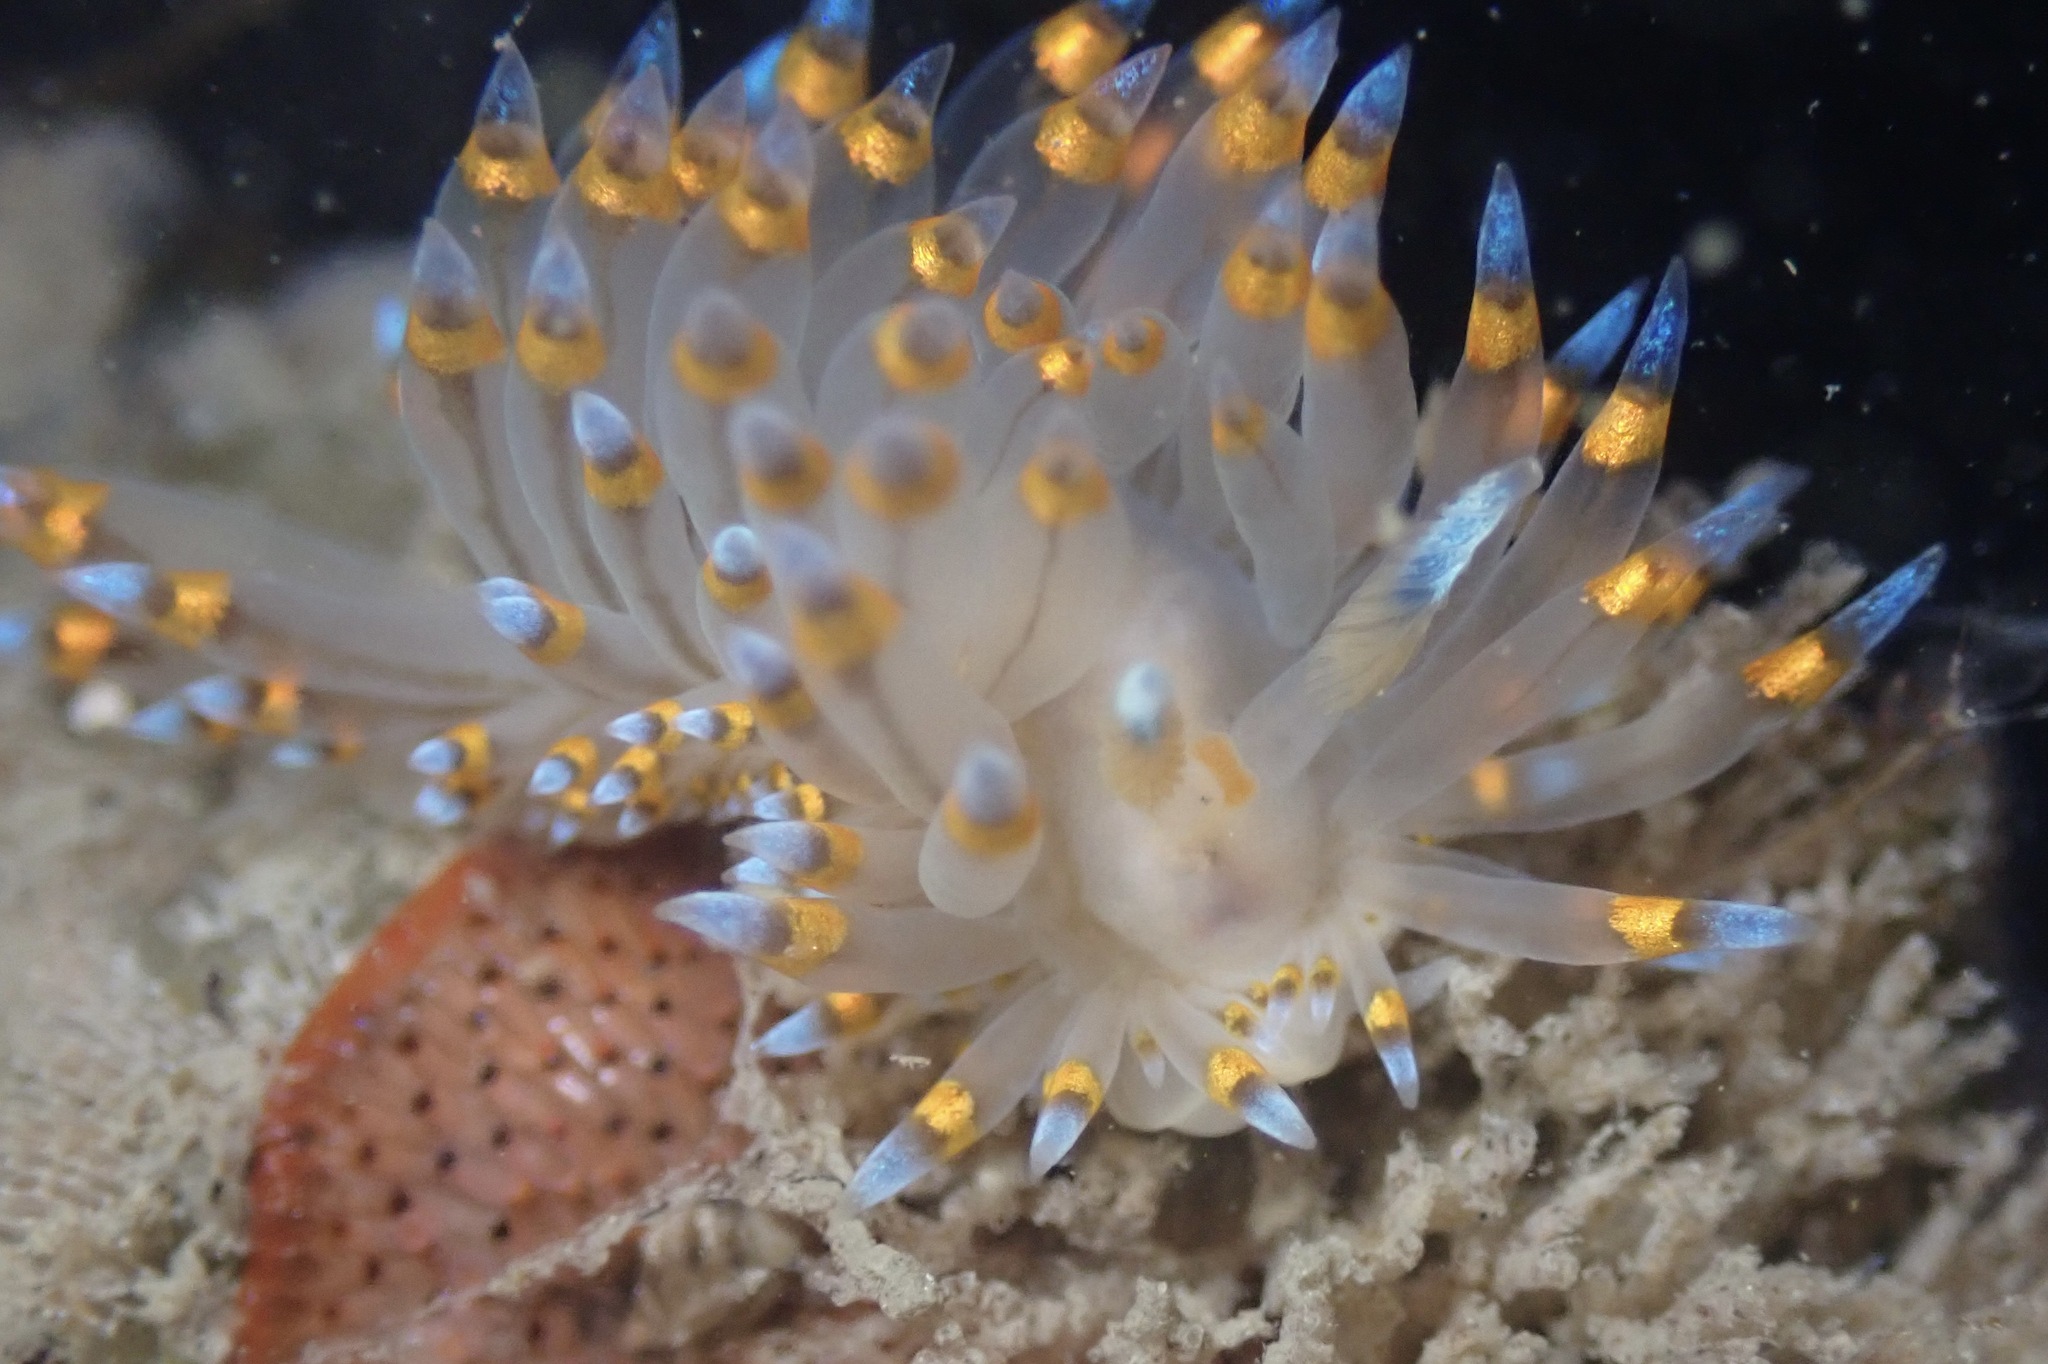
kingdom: Animalia
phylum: Mollusca
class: Gastropoda
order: Nudibranchia
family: Janolidae
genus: Antiopella
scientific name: Antiopella barbarensis
